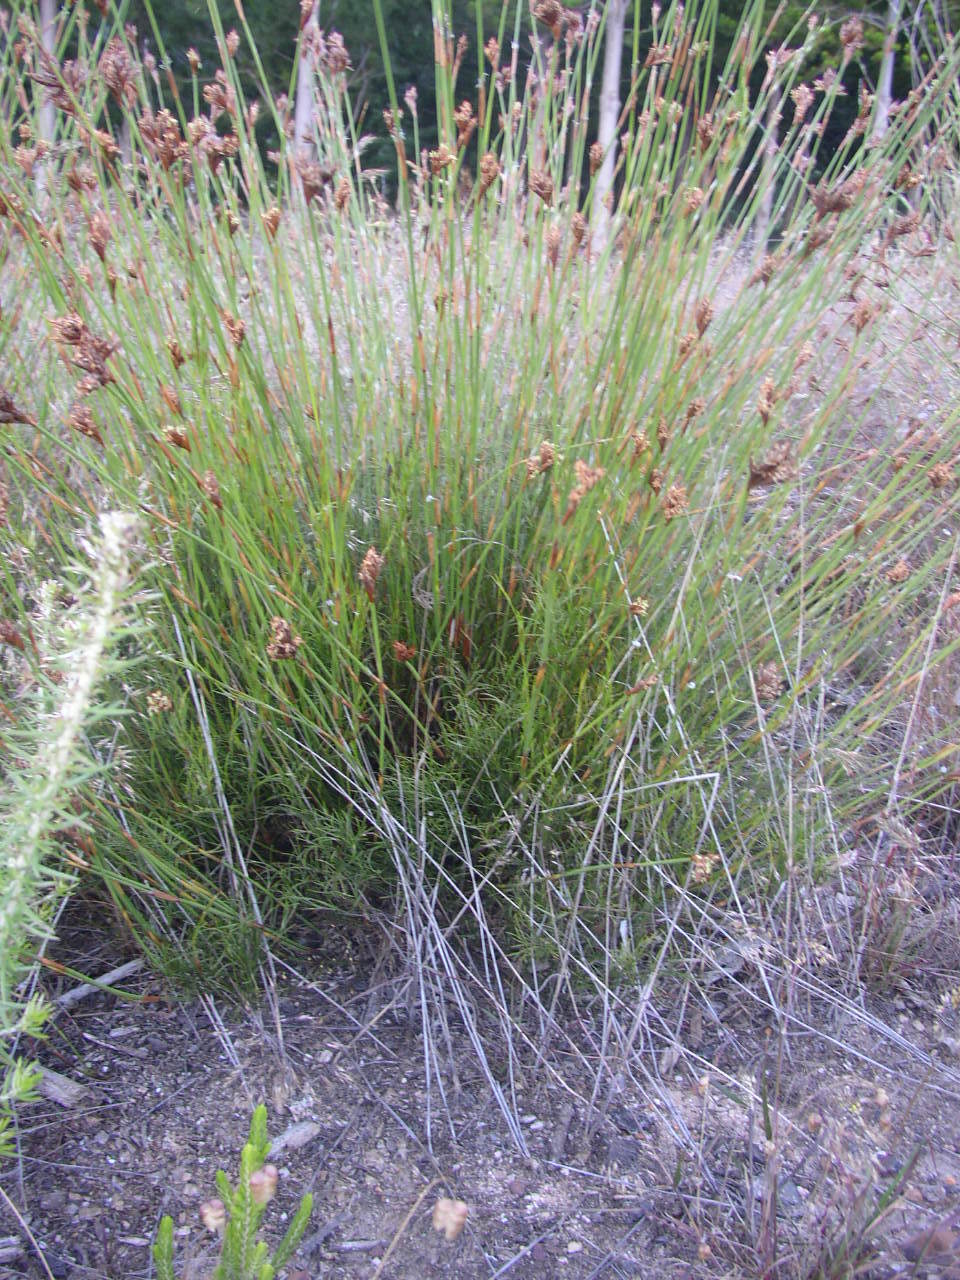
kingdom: Plantae
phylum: Tracheophyta
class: Liliopsida
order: Poales
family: Restionaceae
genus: Restio
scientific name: Restio capensis
